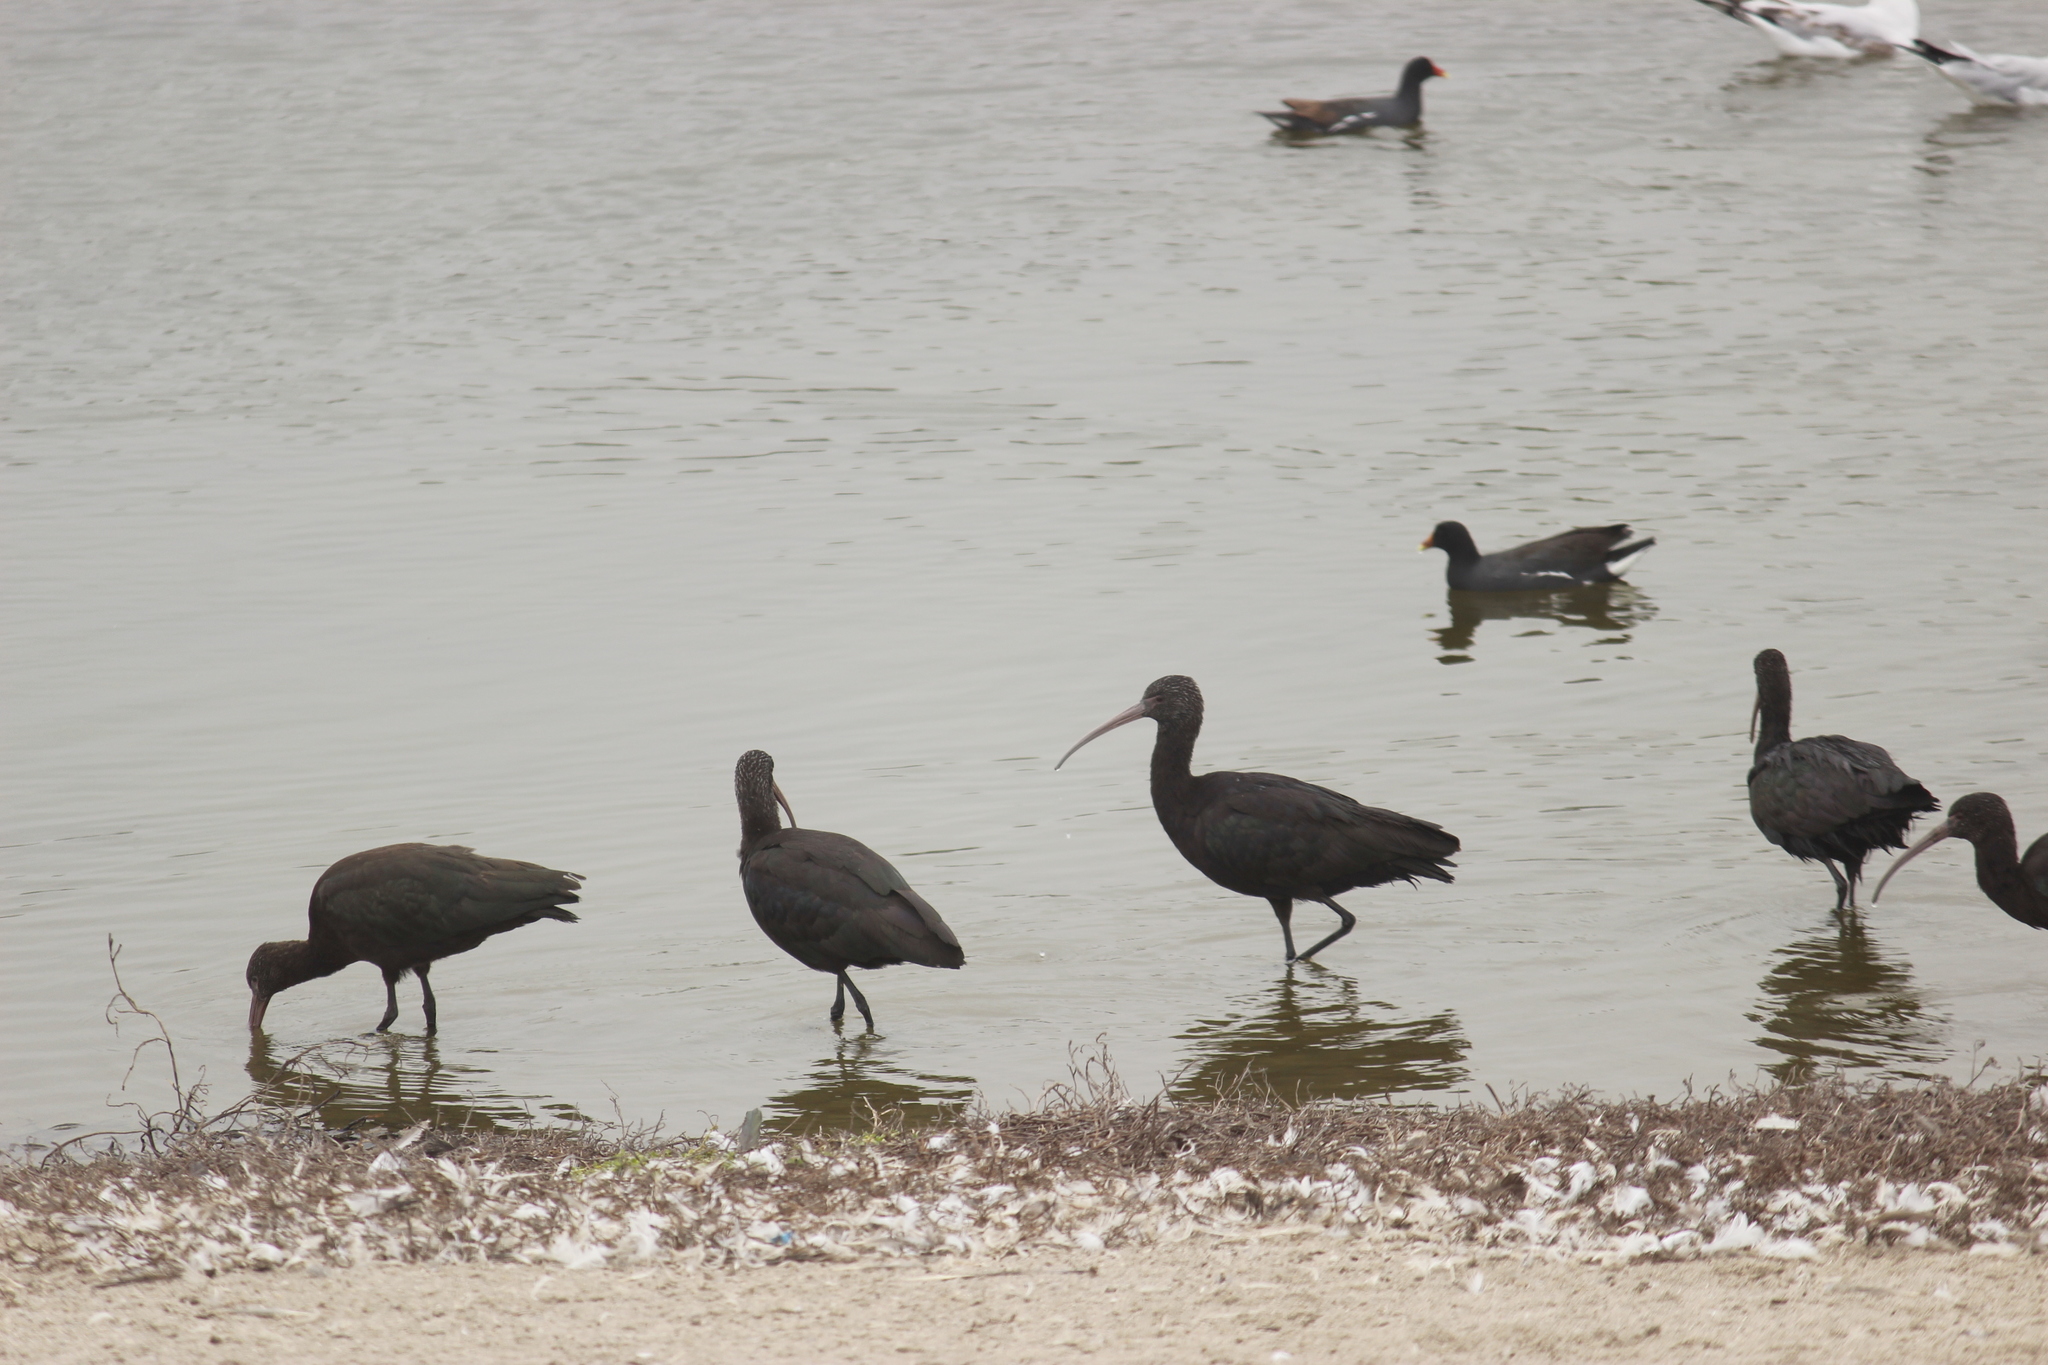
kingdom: Animalia
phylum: Chordata
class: Aves
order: Pelecaniformes
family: Threskiornithidae
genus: Plegadis
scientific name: Plegadis ridgwayi
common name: Puna ibis
